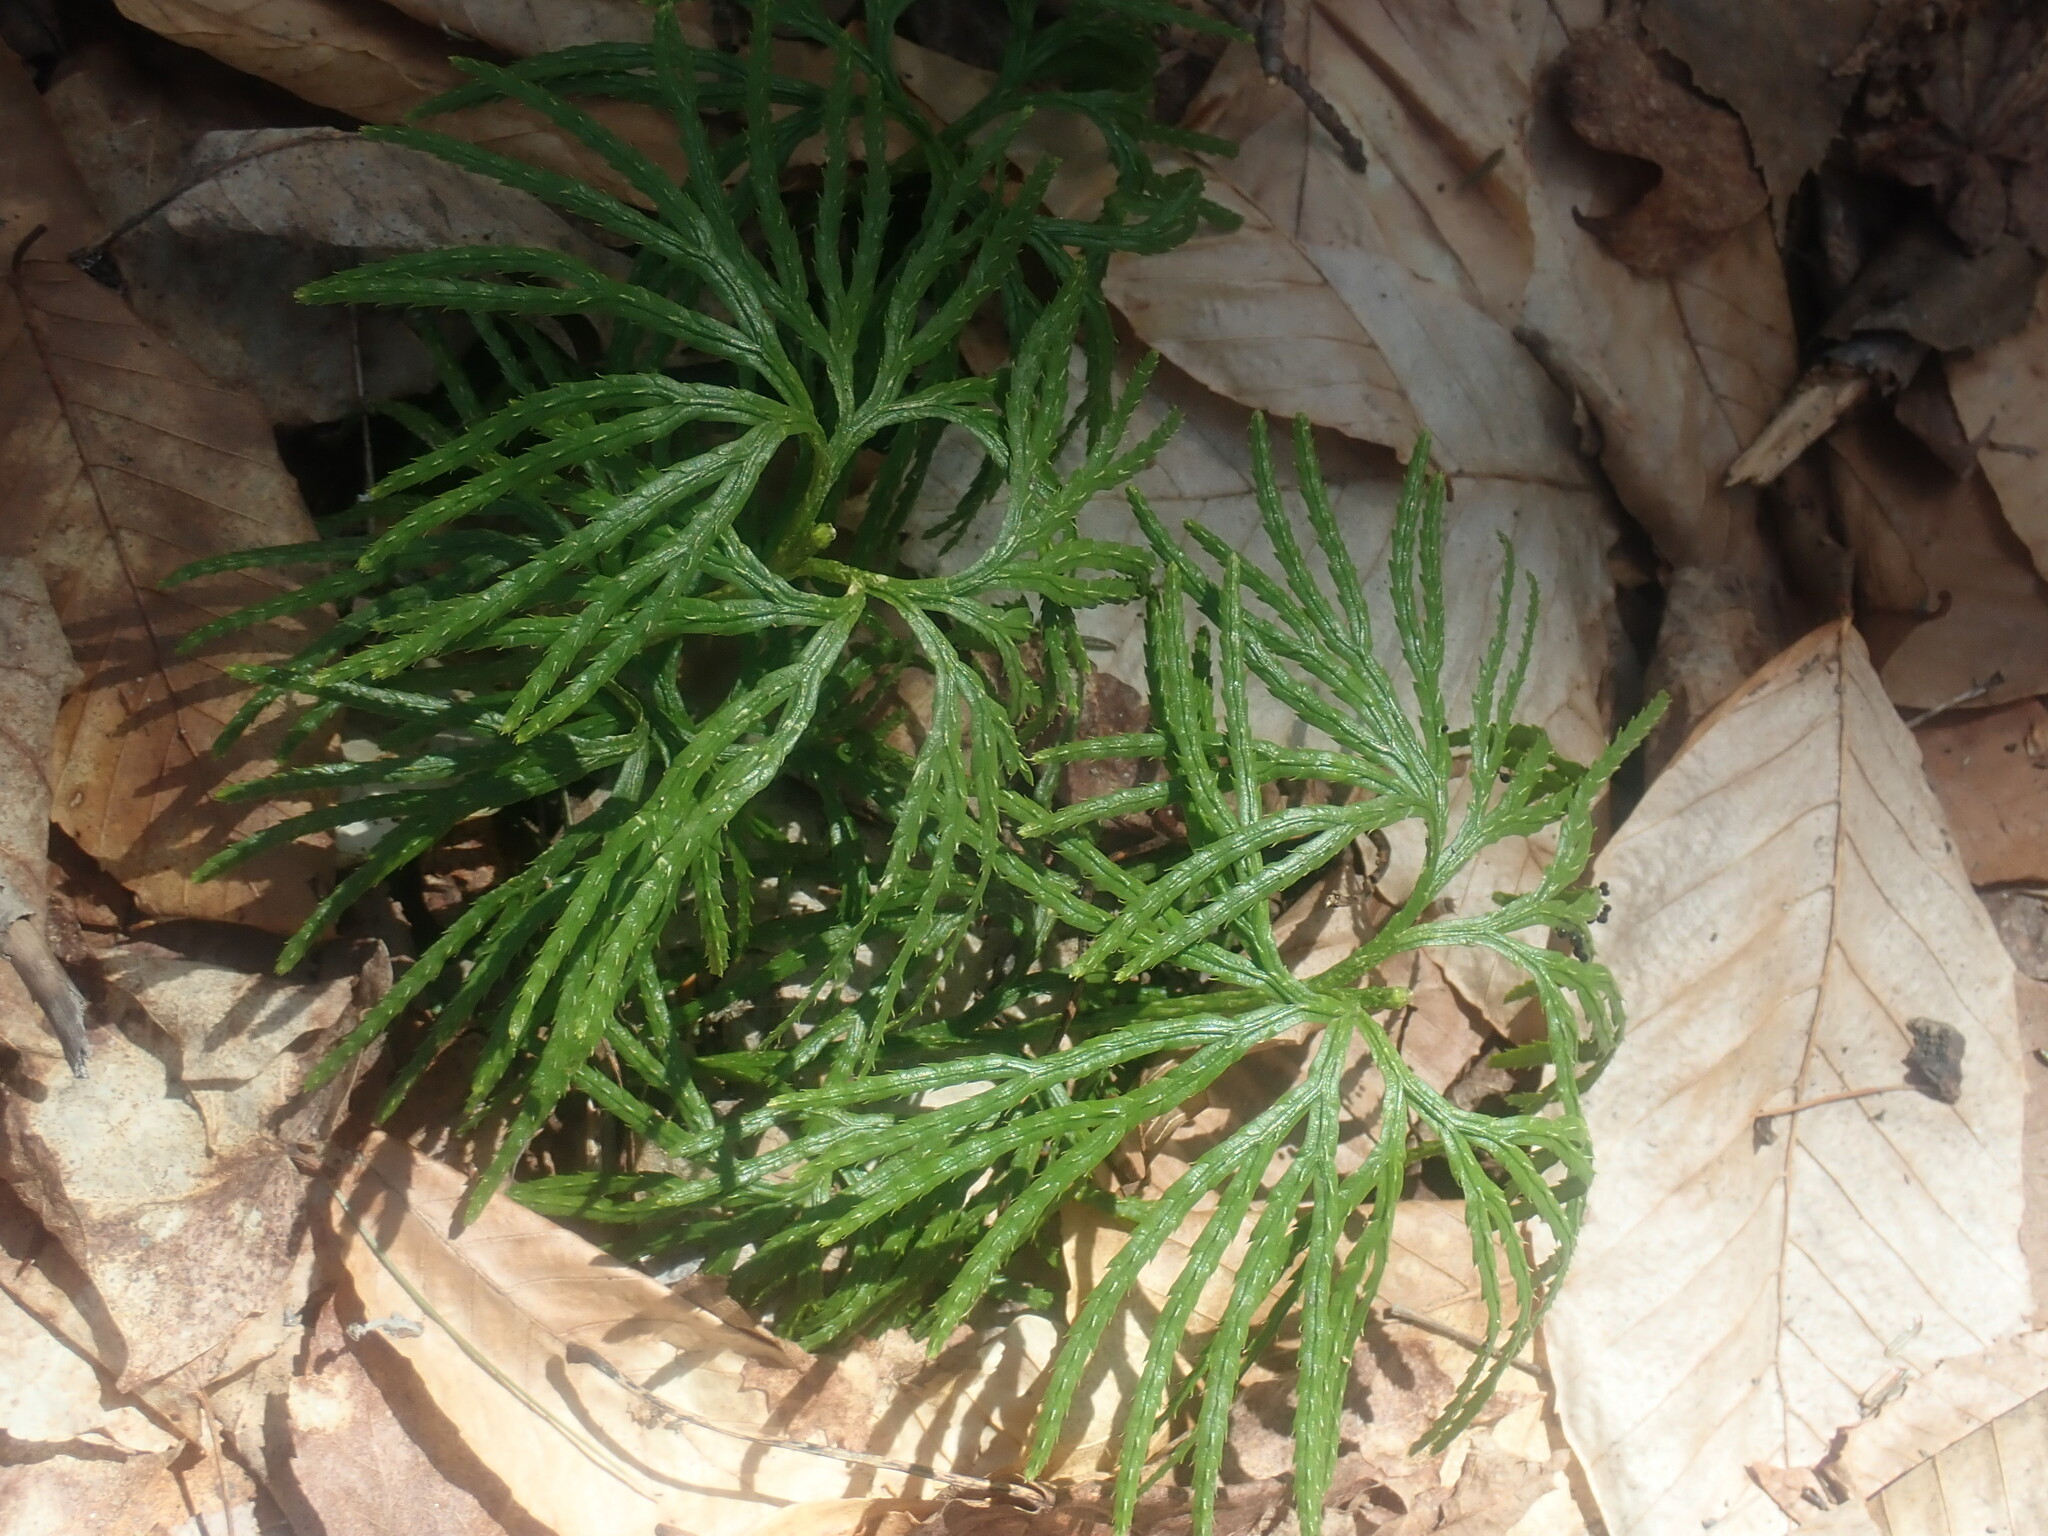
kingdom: Plantae
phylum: Tracheophyta
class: Lycopodiopsida
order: Lycopodiales
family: Lycopodiaceae
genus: Diphasiastrum
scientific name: Diphasiastrum digitatum
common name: Southern running-pine
